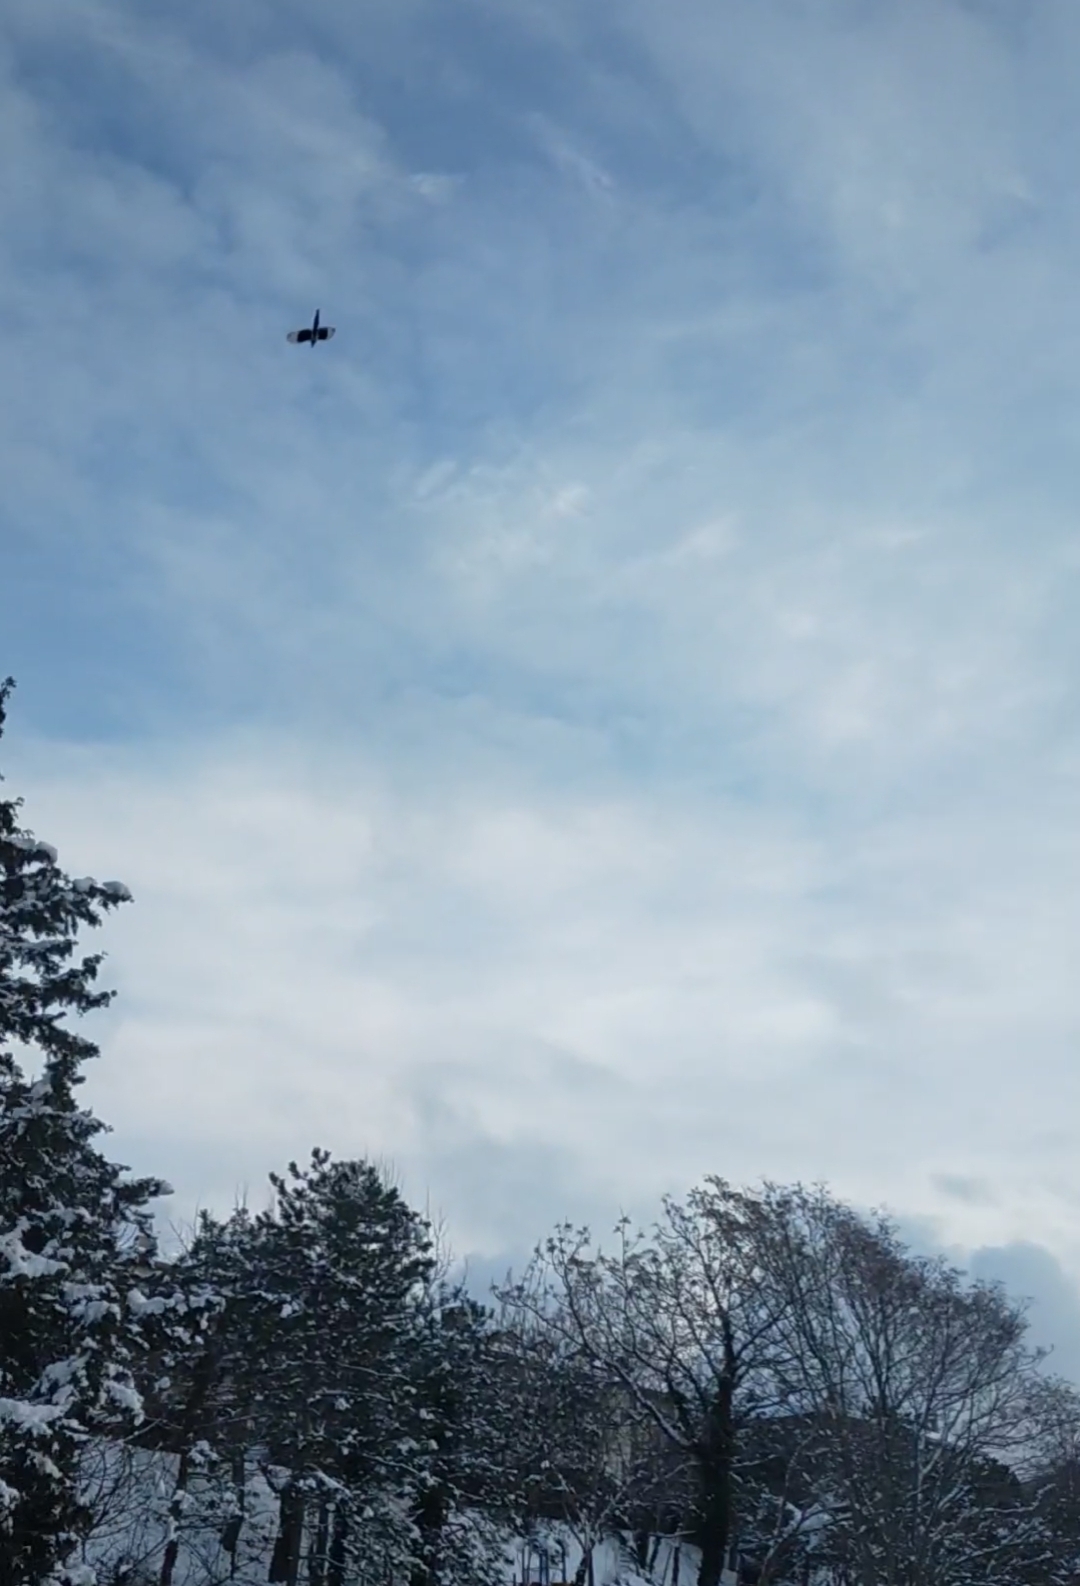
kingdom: Animalia
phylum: Chordata
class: Aves
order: Passeriformes
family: Corvidae
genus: Pica
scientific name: Pica pica
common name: Eurasian magpie
